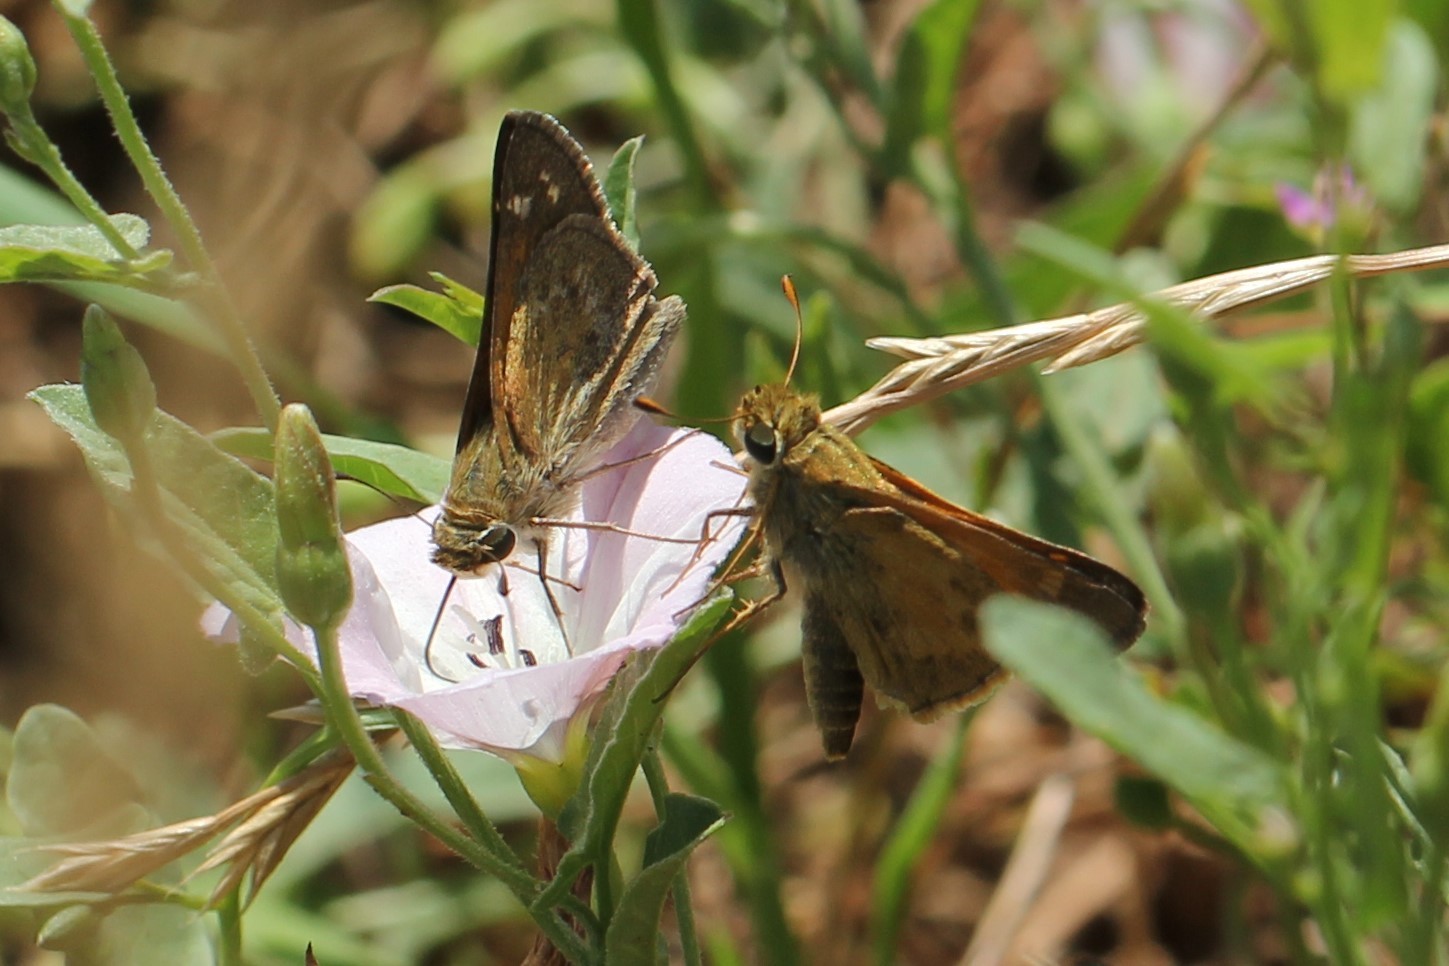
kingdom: Animalia
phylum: Arthropoda
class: Insecta
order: Lepidoptera
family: Hesperiidae
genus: Atalopedes
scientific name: Atalopedes
